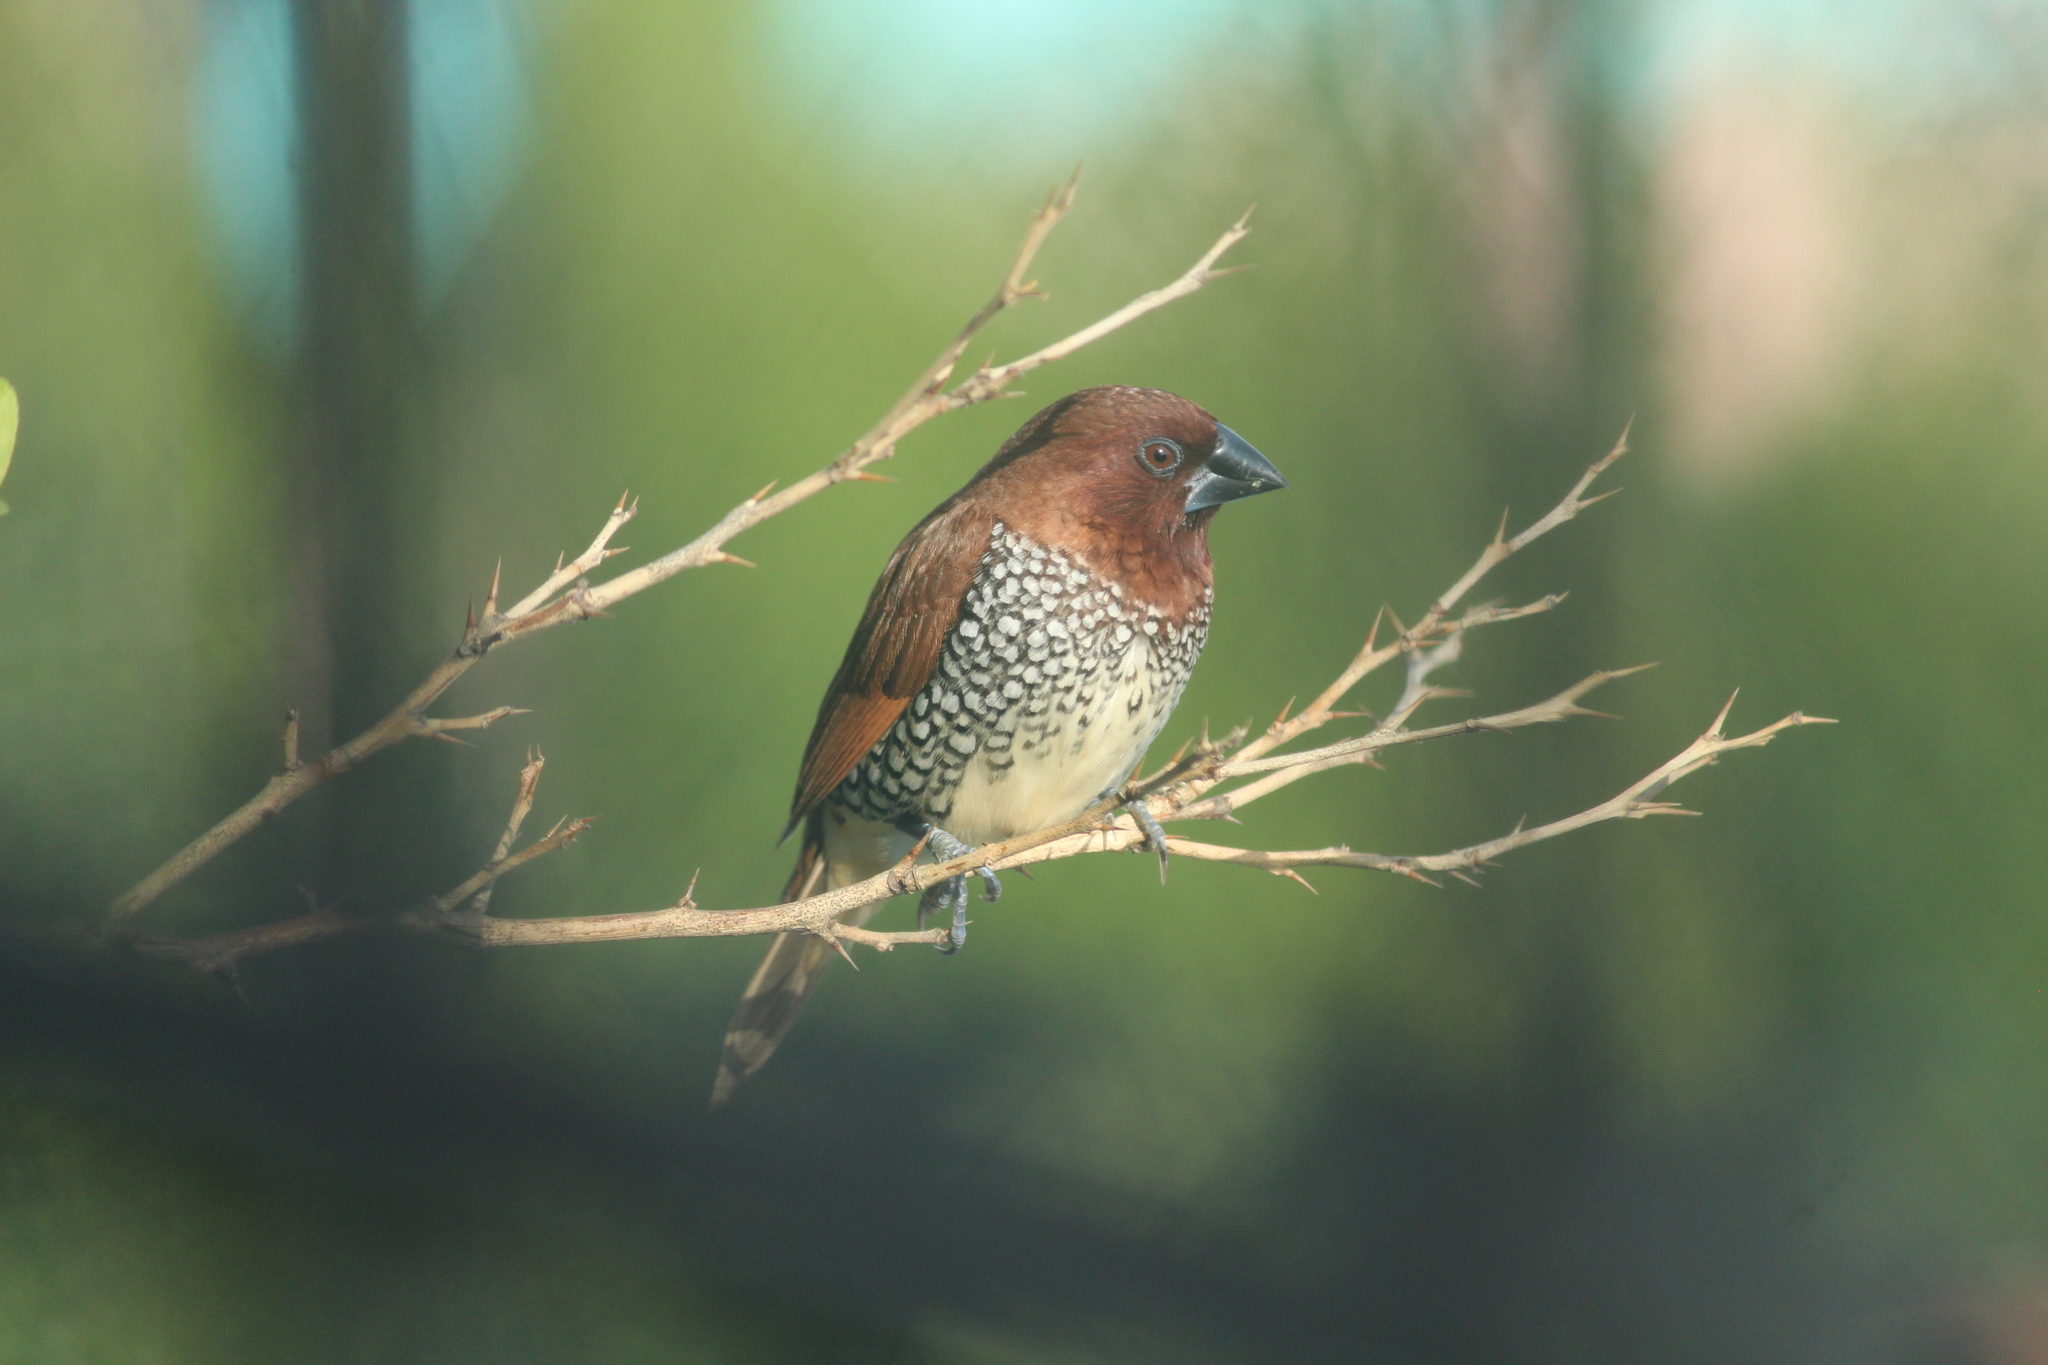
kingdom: Animalia
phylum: Chordata
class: Aves
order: Passeriformes
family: Estrildidae
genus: Lonchura
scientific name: Lonchura punctulata
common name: Scaly-breasted munia
